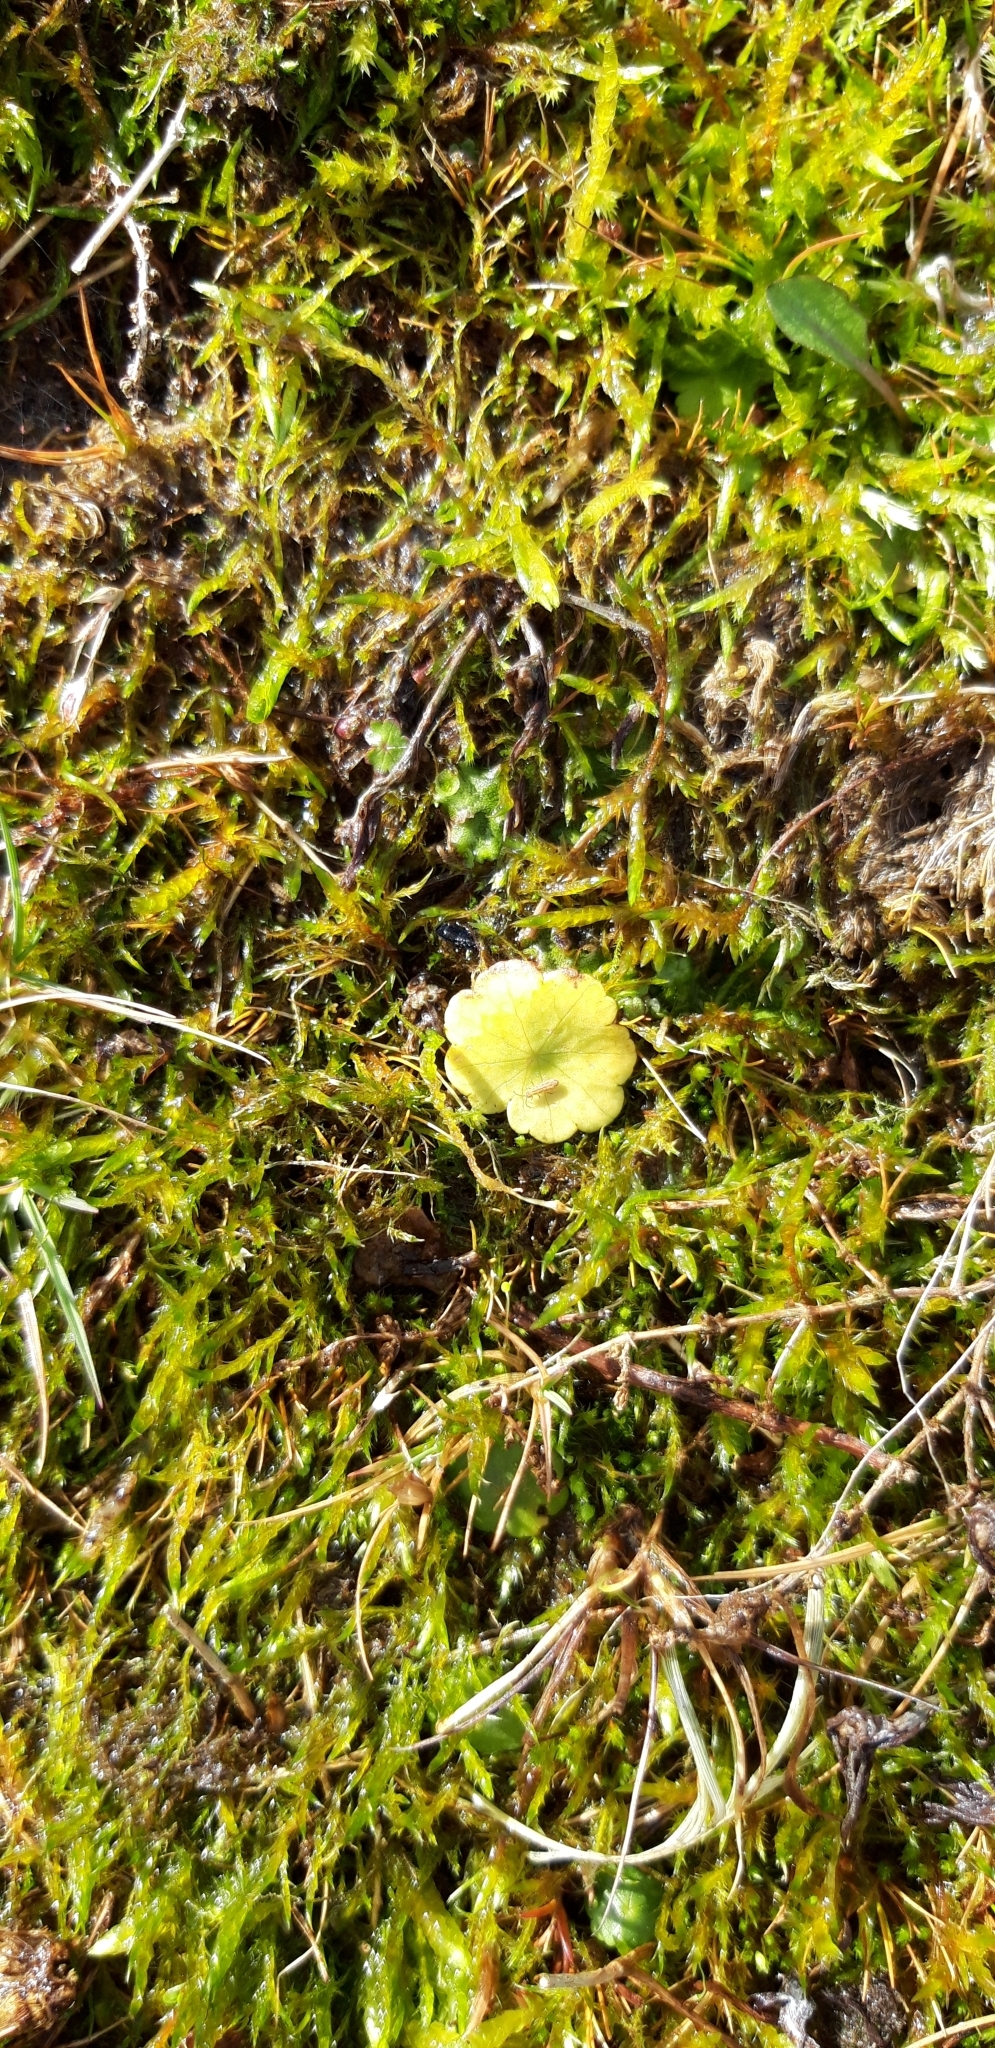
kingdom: Plantae
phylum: Tracheophyta
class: Magnoliopsida
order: Apiales
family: Araliaceae
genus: Hydrocotyle
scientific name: Hydrocotyle vulgaris
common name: Marsh pennywort
